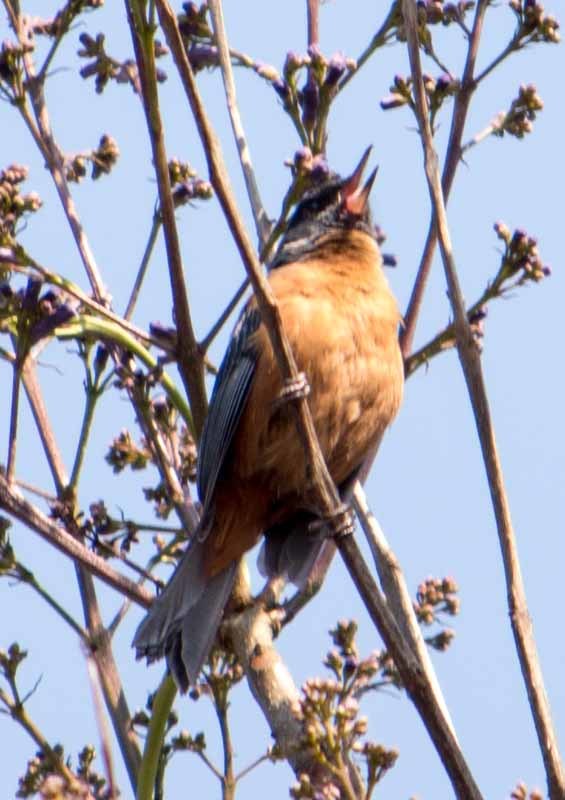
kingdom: Animalia
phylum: Chordata
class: Aves
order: Passeriformes
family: Thraupidae
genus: Diglossa
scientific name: Diglossa baritula
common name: Cinnamon-bellied flowerpiercer
